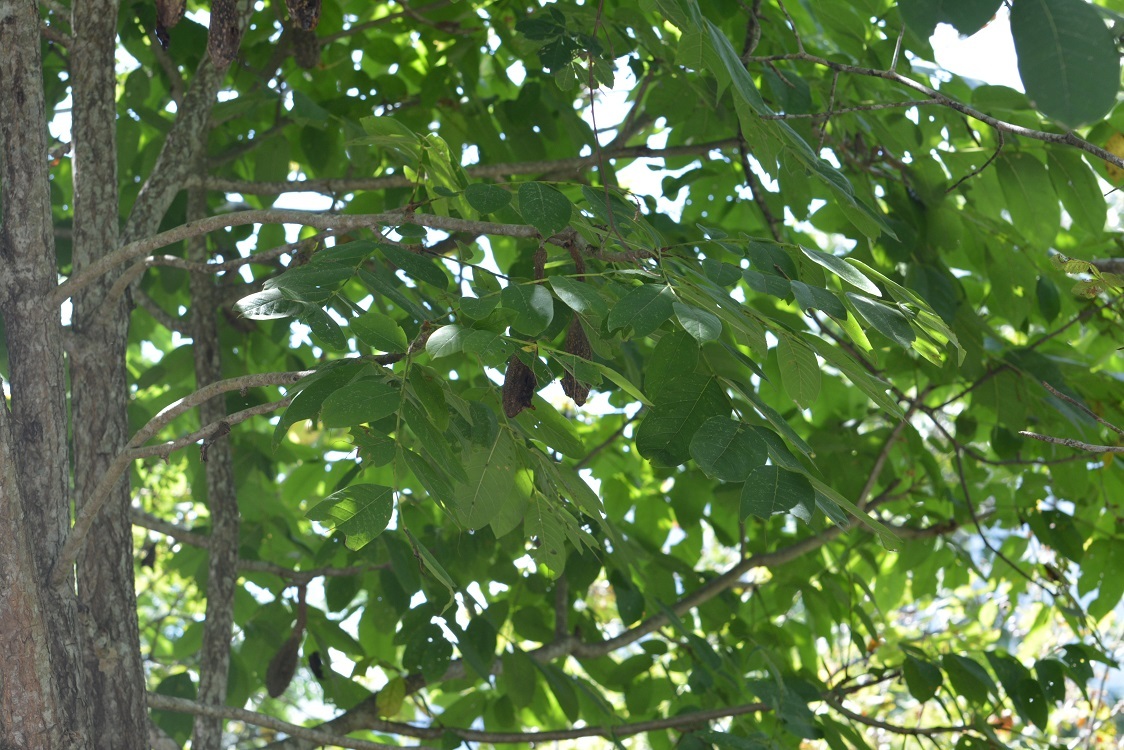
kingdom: Plantae
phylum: Tracheophyta
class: Magnoliopsida
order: Sapindales
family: Meliaceae
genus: Cedrela
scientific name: Cedrela salvadorensis
